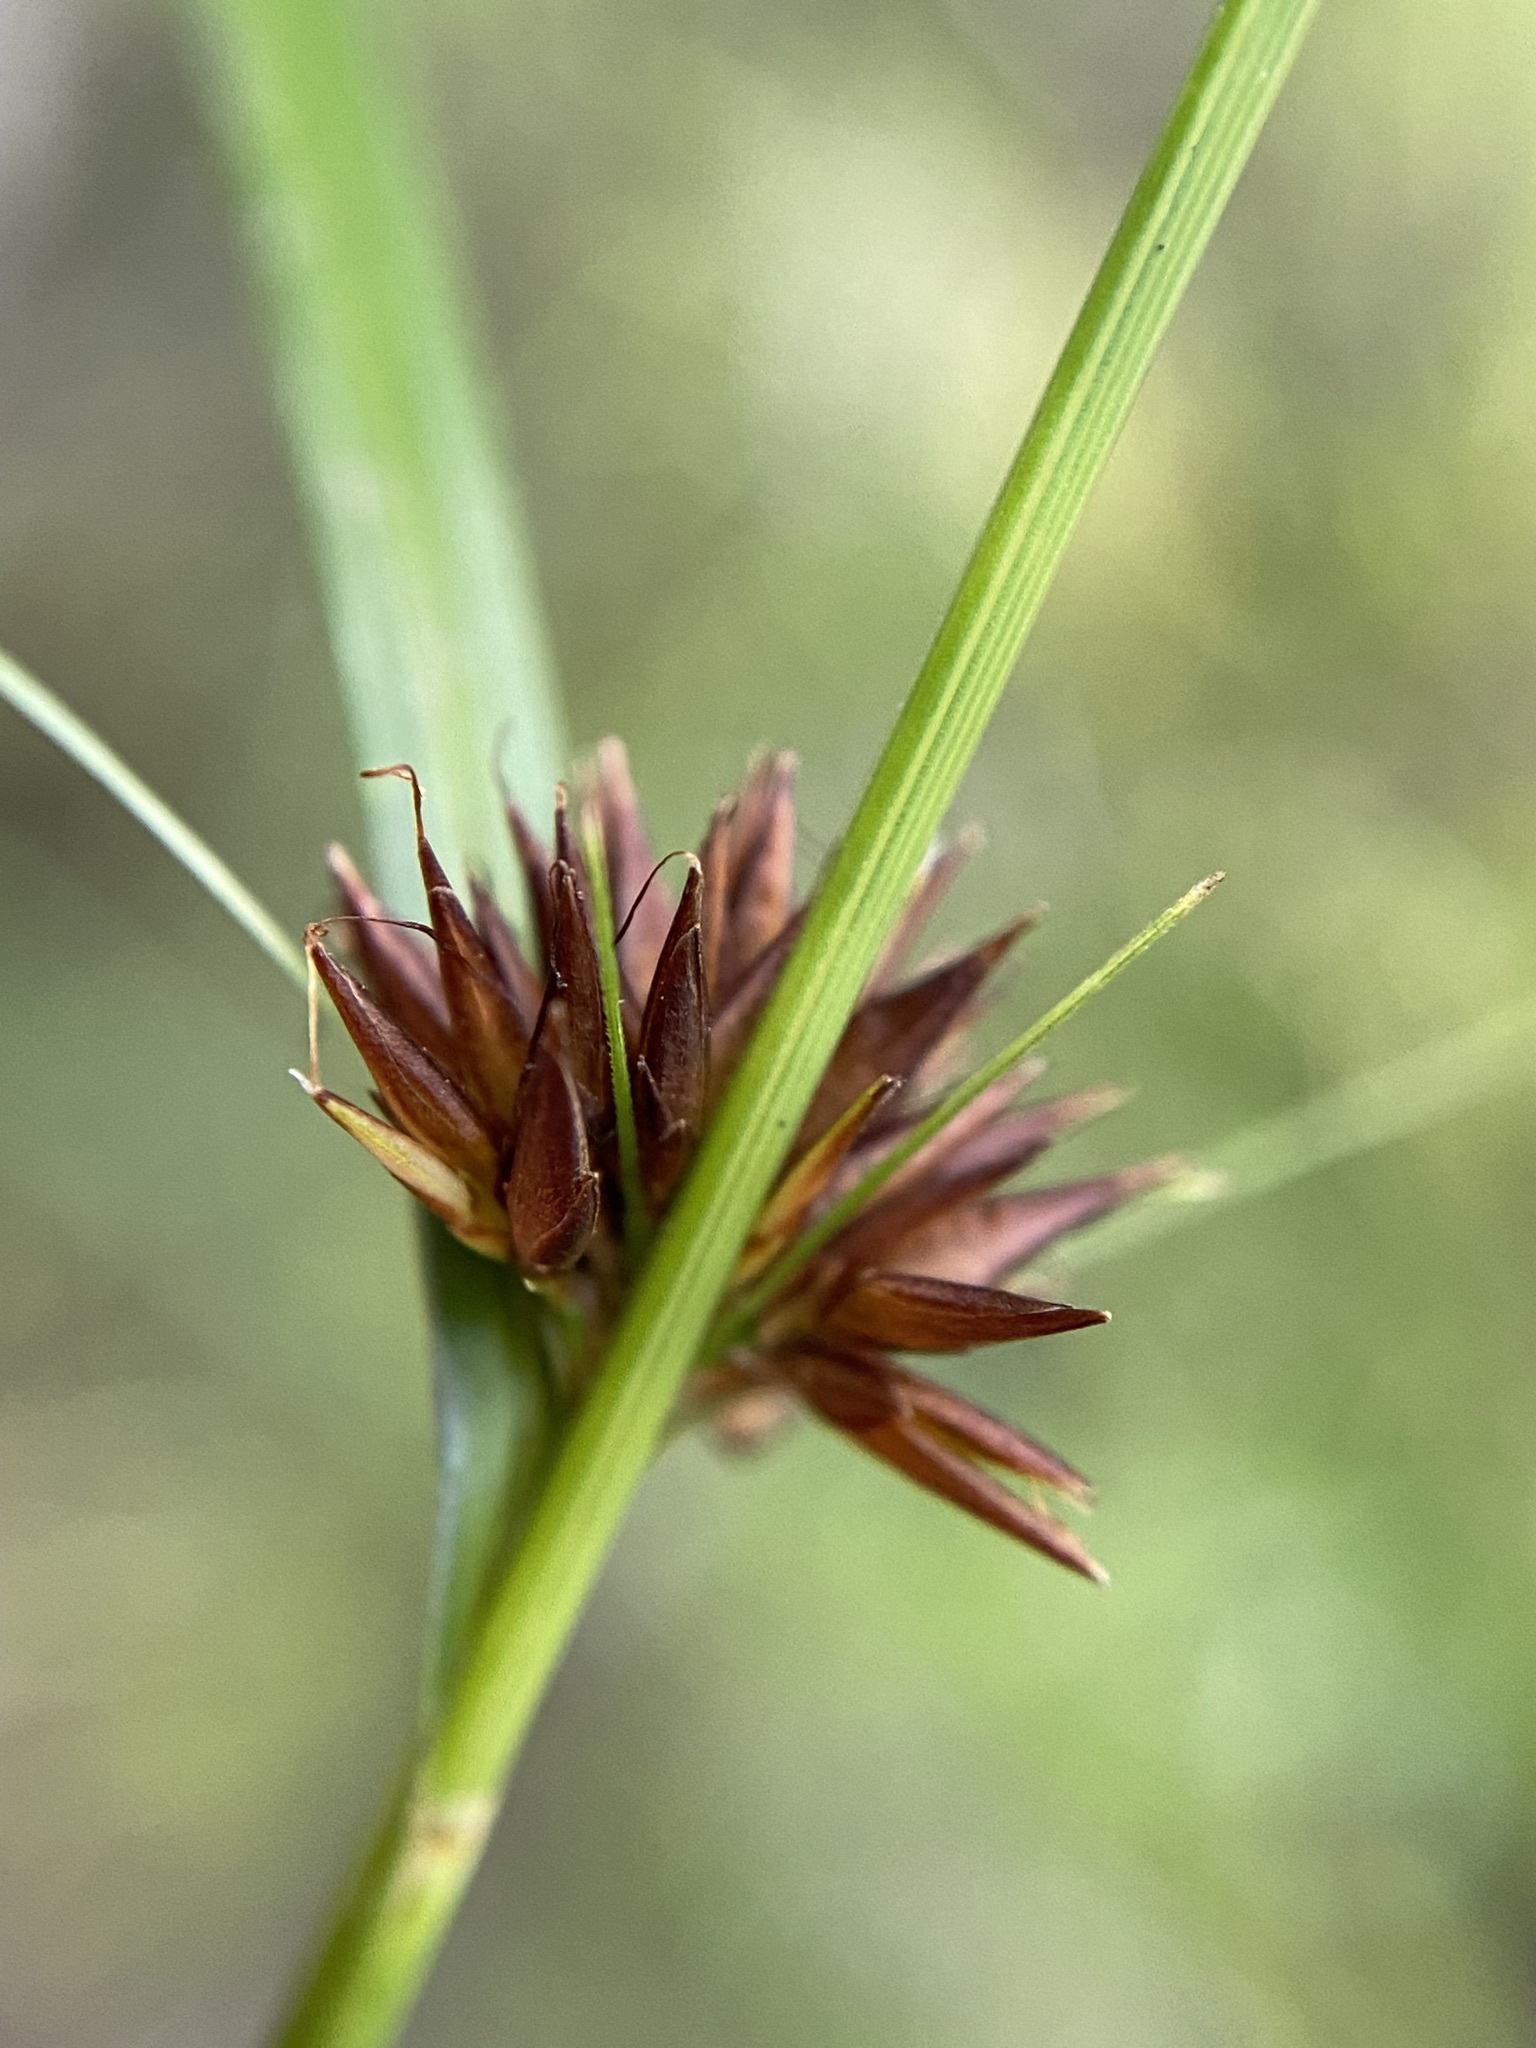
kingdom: Plantae
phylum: Tracheophyta
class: Liliopsida
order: Poales
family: Cyperaceae
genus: Rhynchospora
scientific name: Rhynchospora chalarocephala
